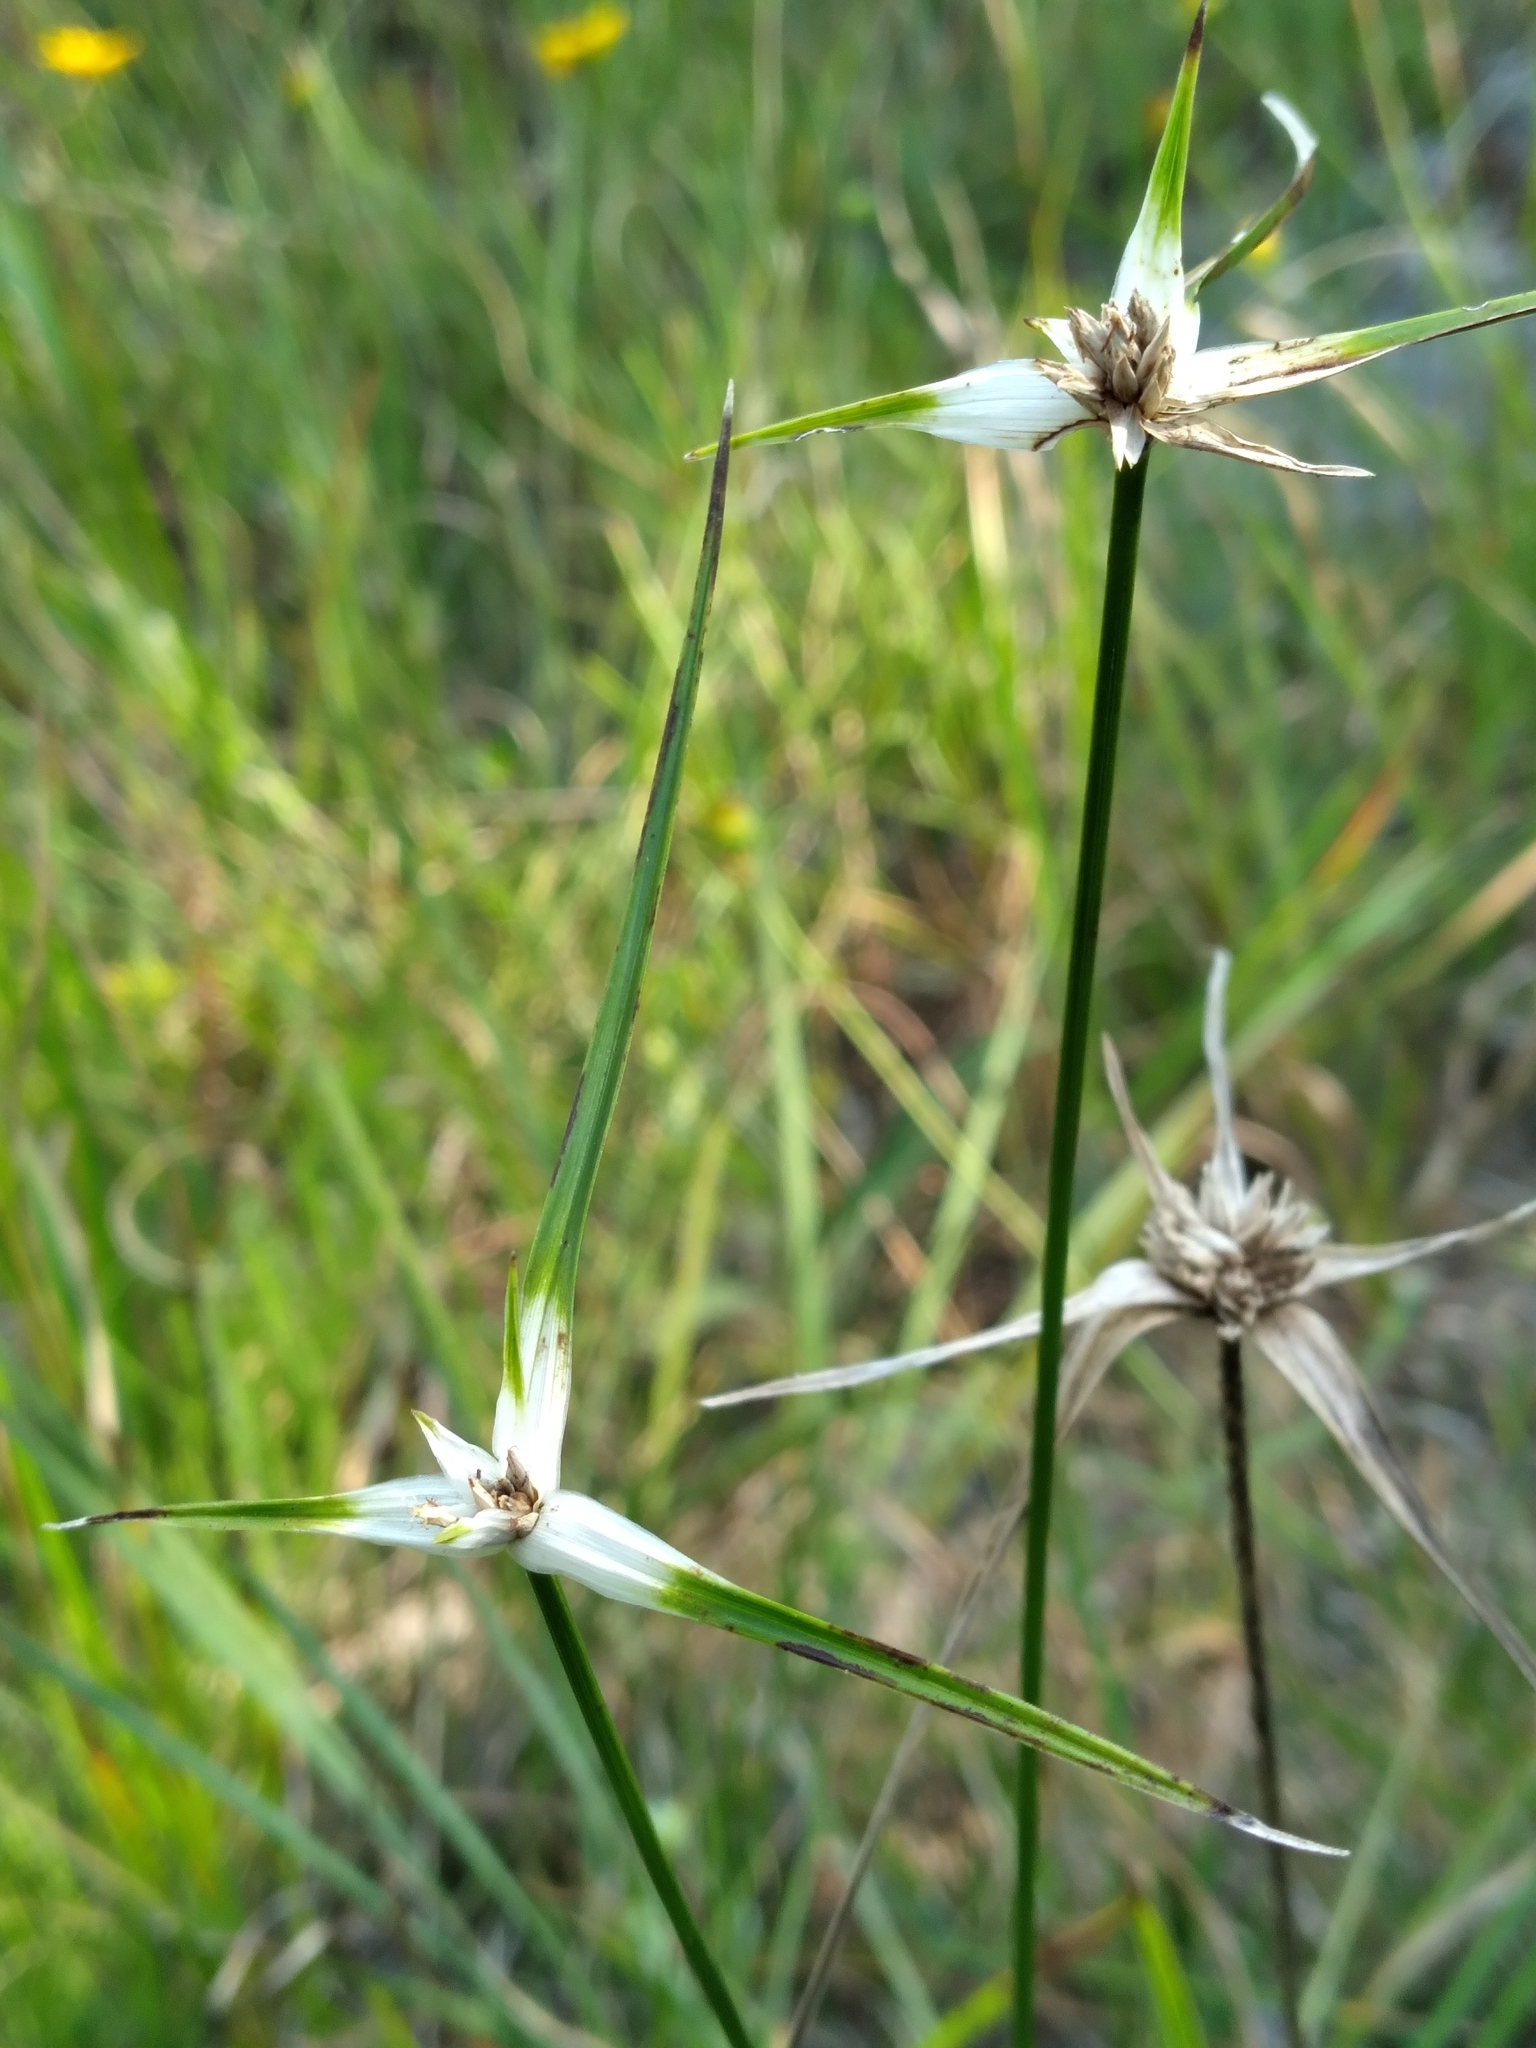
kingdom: Plantae
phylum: Tracheophyta
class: Liliopsida
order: Poales
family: Cyperaceae
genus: Rhynchospora
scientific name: Rhynchospora colorata
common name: Star sedge
